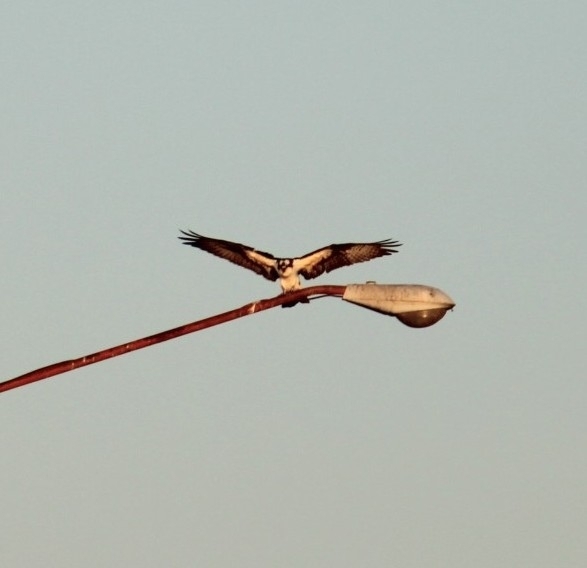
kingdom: Animalia
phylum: Chordata
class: Aves
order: Accipitriformes
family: Pandionidae
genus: Pandion
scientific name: Pandion haliaetus
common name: Osprey
